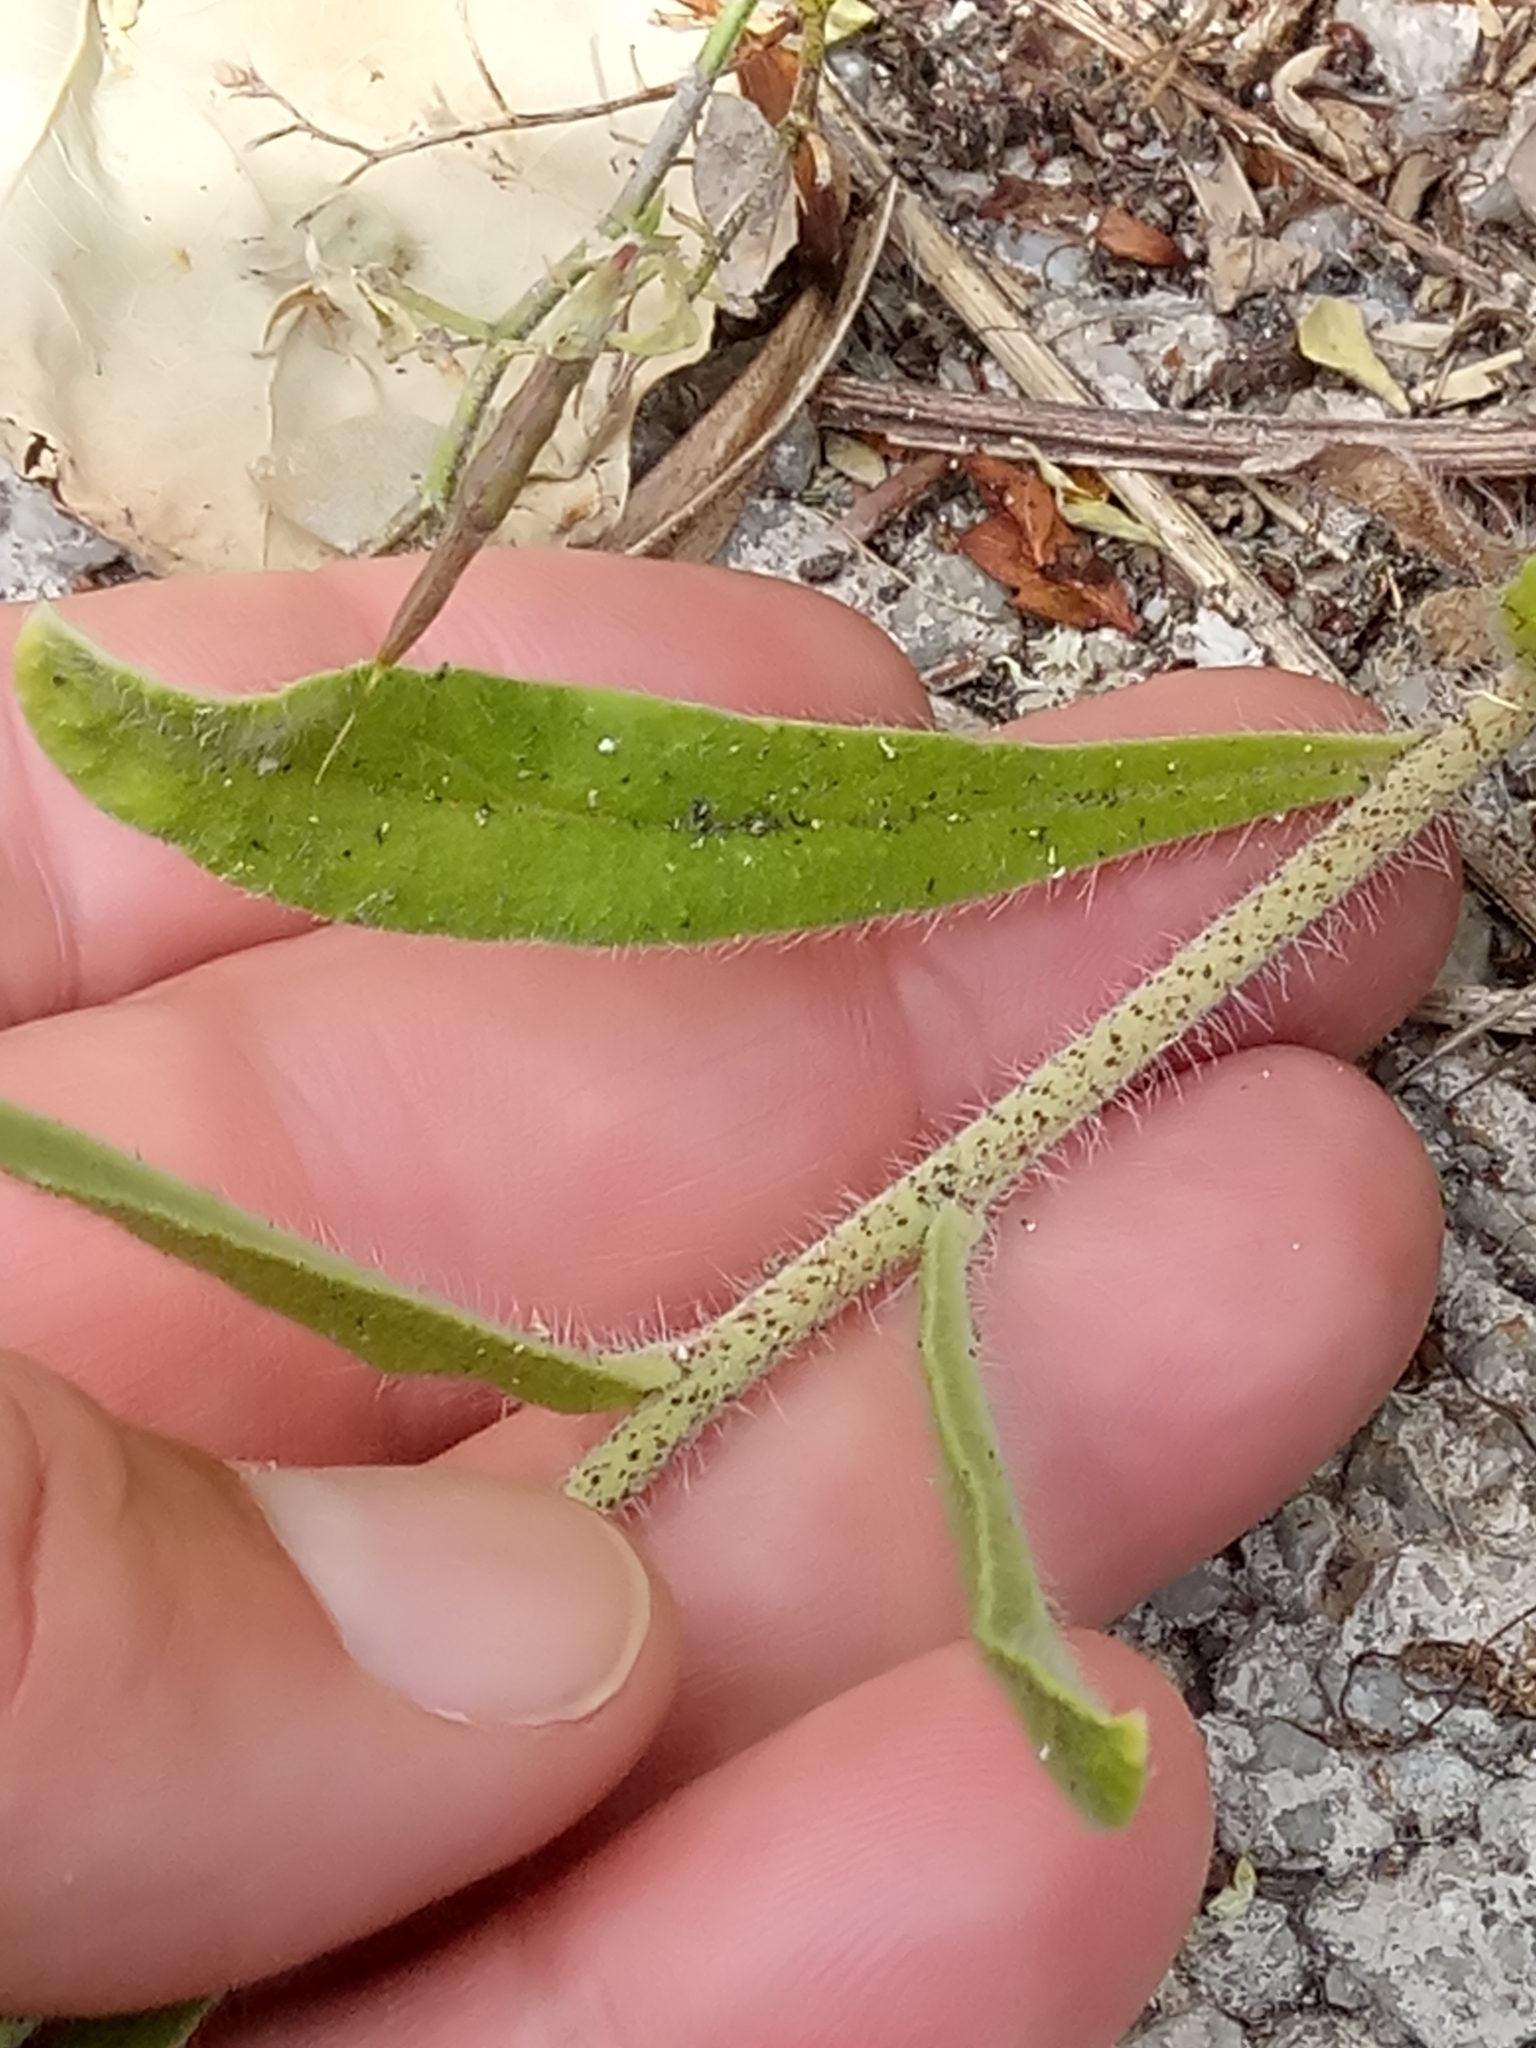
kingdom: Plantae
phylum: Tracheophyta
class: Magnoliopsida
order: Boraginales
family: Boraginaceae
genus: Echium
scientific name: Echium vulgare
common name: Common viper's bugloss
